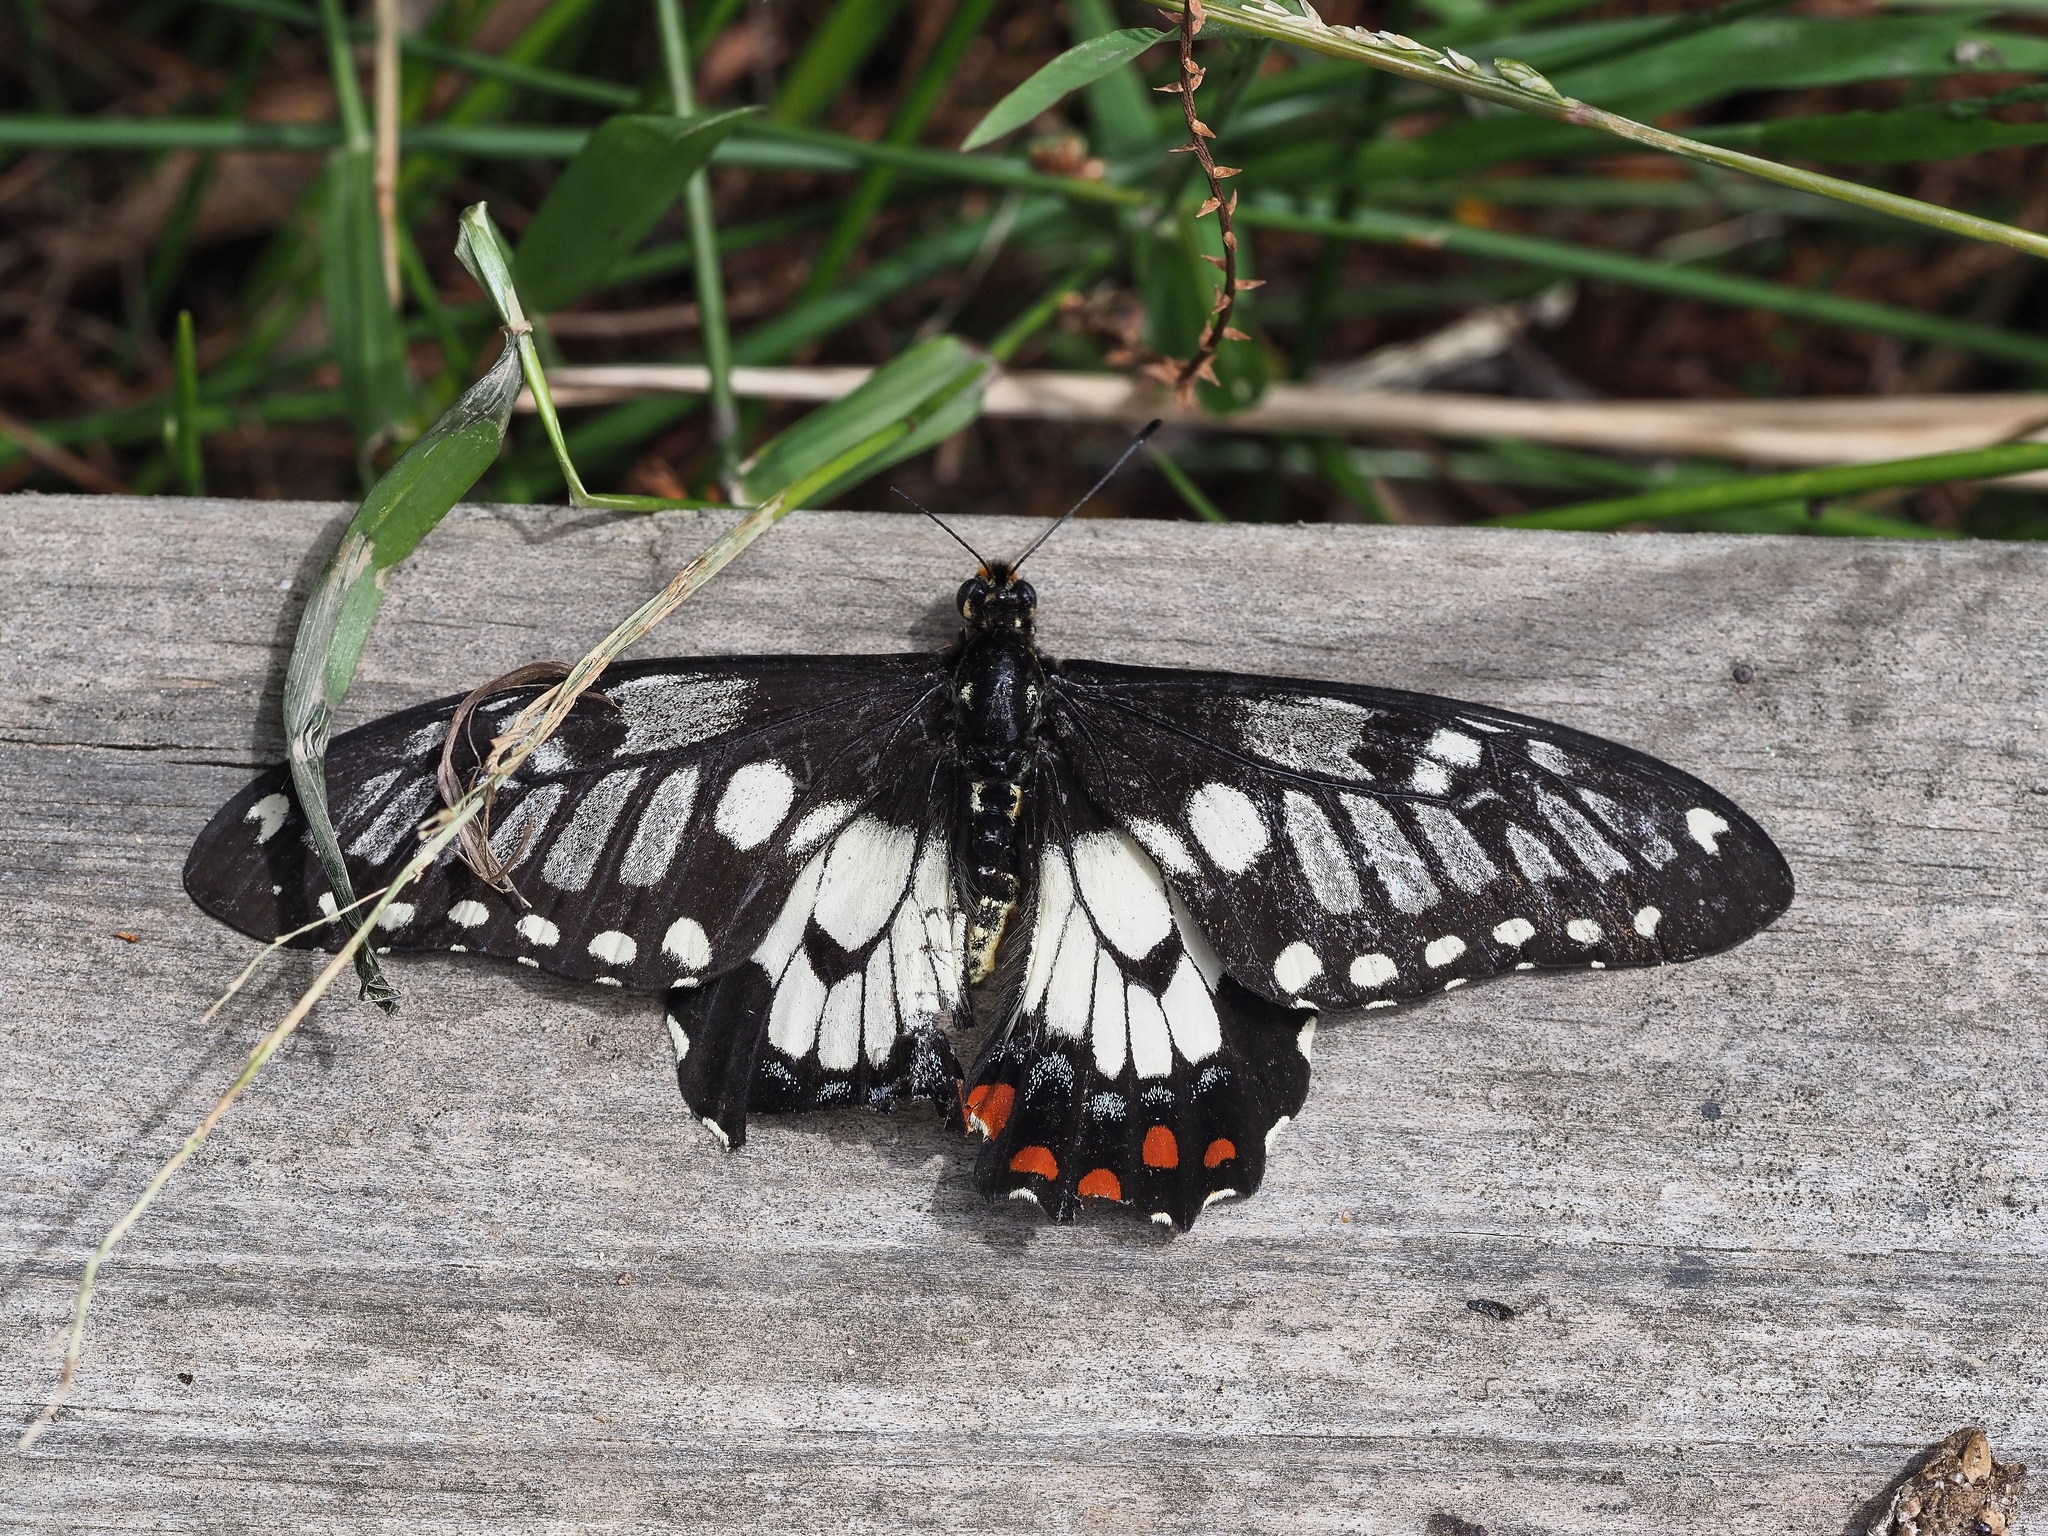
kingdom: Animalia
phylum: Arthropoda
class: Insecta
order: Lepidoptera
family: Papilionidae
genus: Papilio
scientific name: Papilio anactus
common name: Dingy swallowtail
